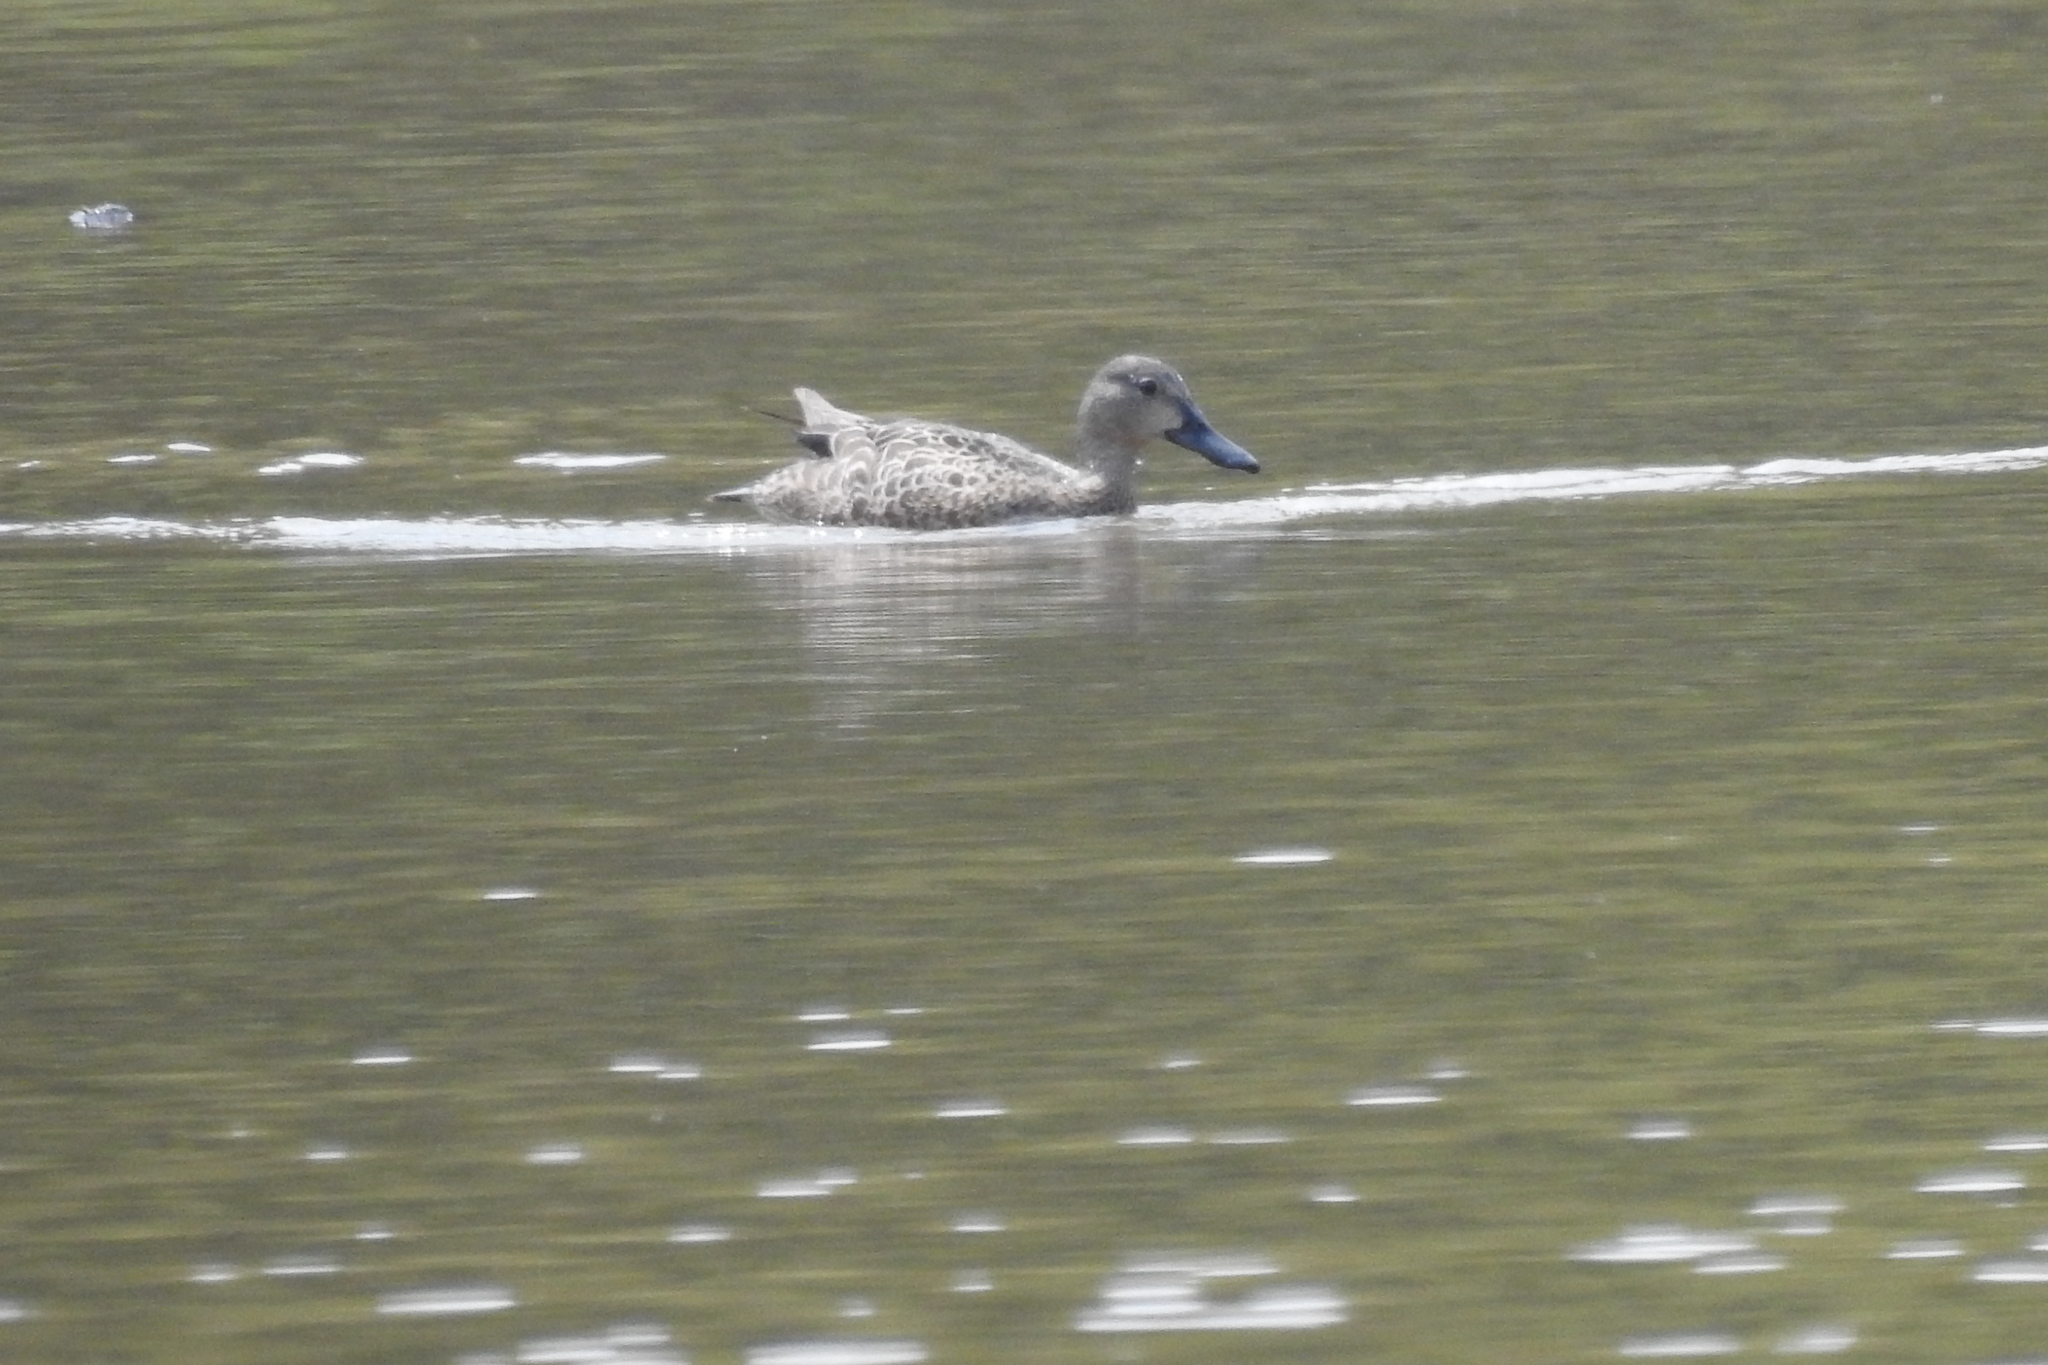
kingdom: Animalia
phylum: Chordata
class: Aves
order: Anseriformes
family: Anatidae
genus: Spatula
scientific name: Spatula discors
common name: Blue-winged teal
